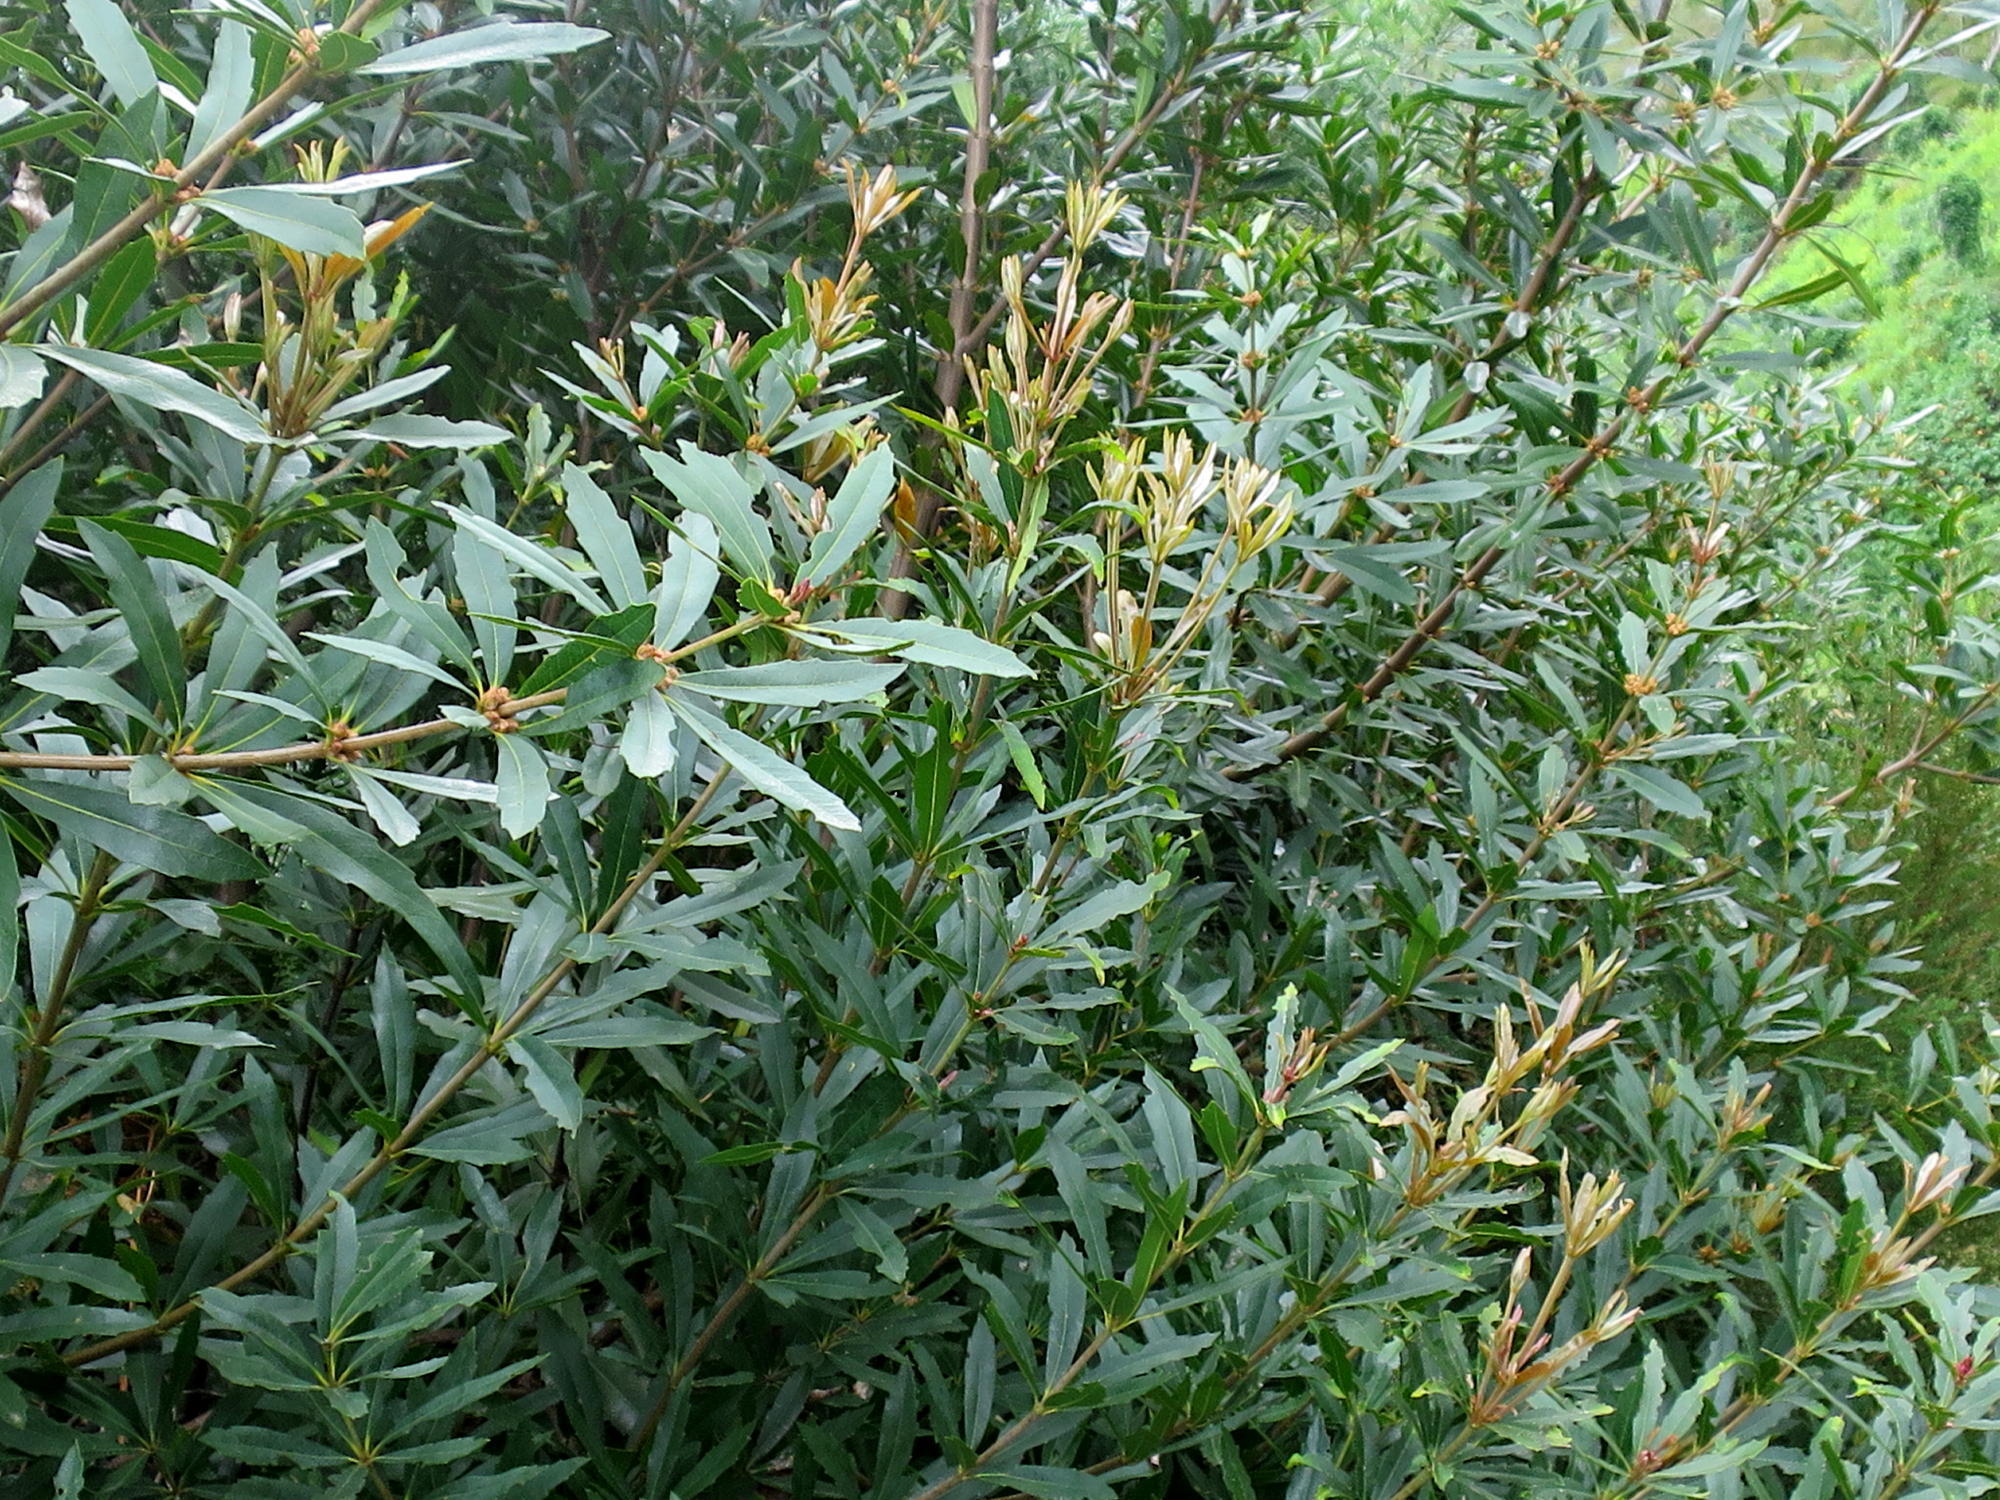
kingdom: Plantae
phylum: Tracheophyta
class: Magnoliopsida
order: Proteales
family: Proteaceae
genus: Brabejum
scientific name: Brabejum stellatifolium
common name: Wild almond
